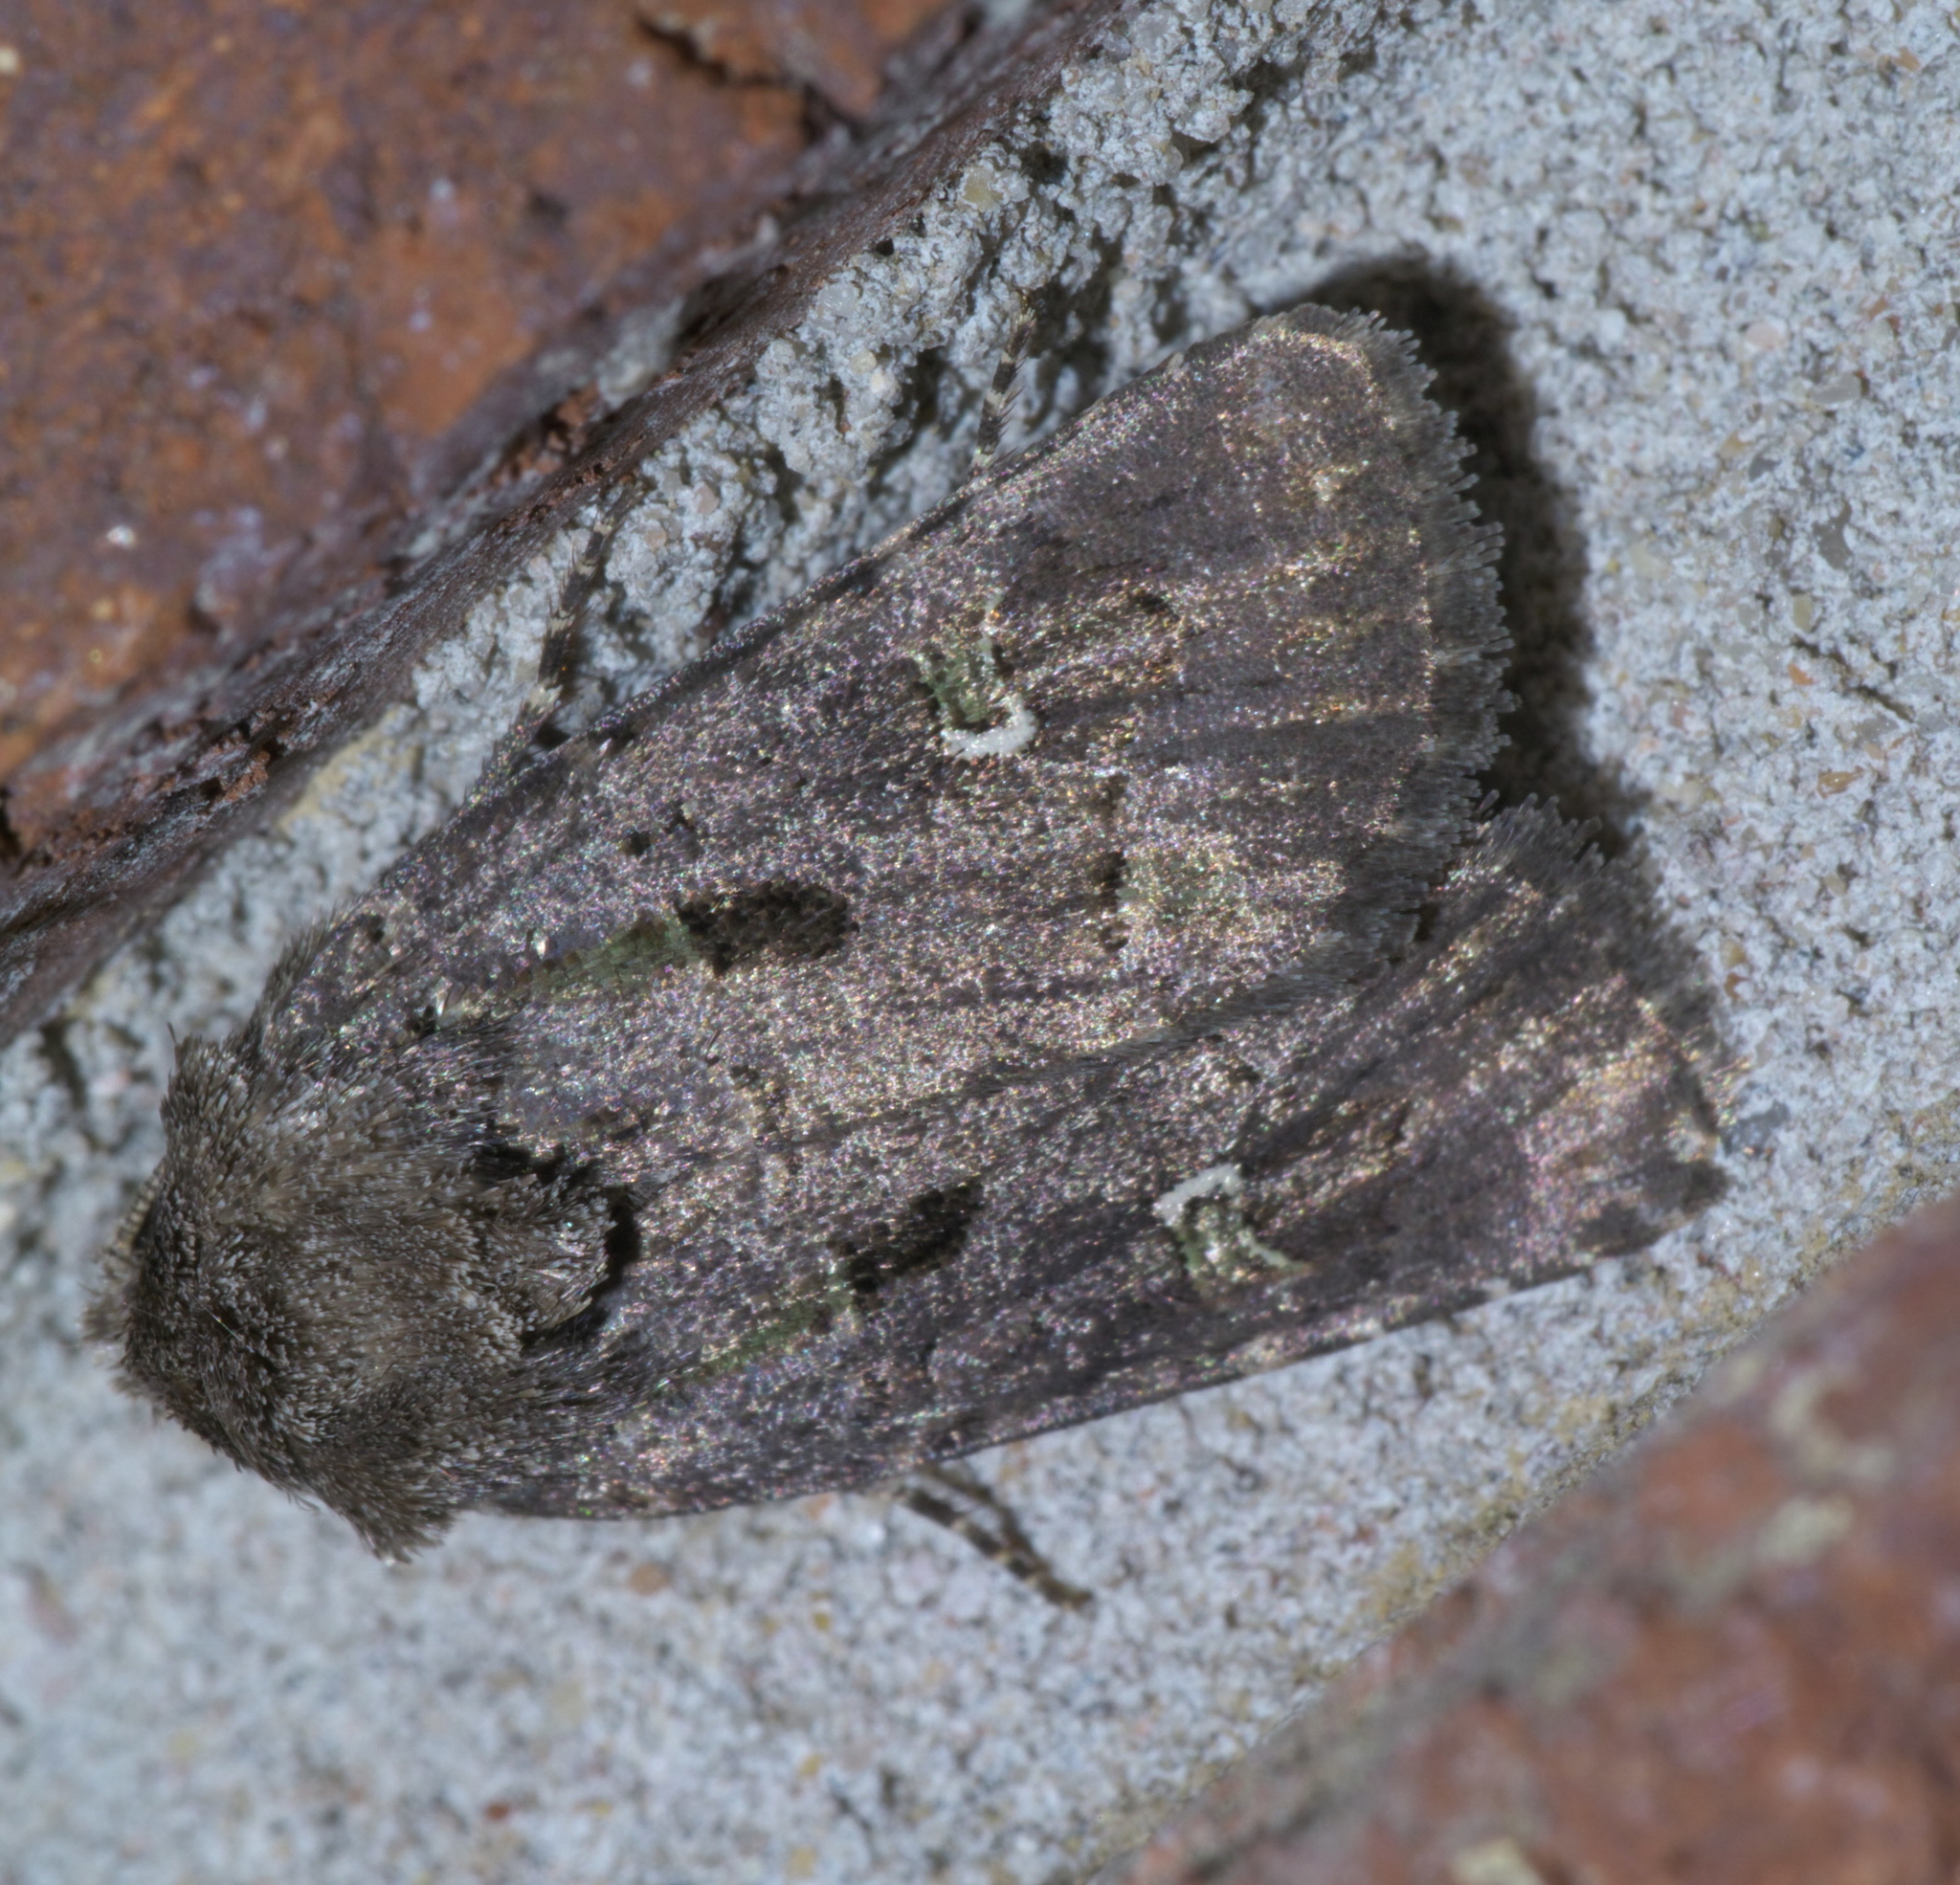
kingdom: Animalia
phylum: Arthropoda
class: Insecta
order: Lepidoptera
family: Noctuidae
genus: Lacinipolia
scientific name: Lacinipolia renigera
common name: Kidney-spotted minor
